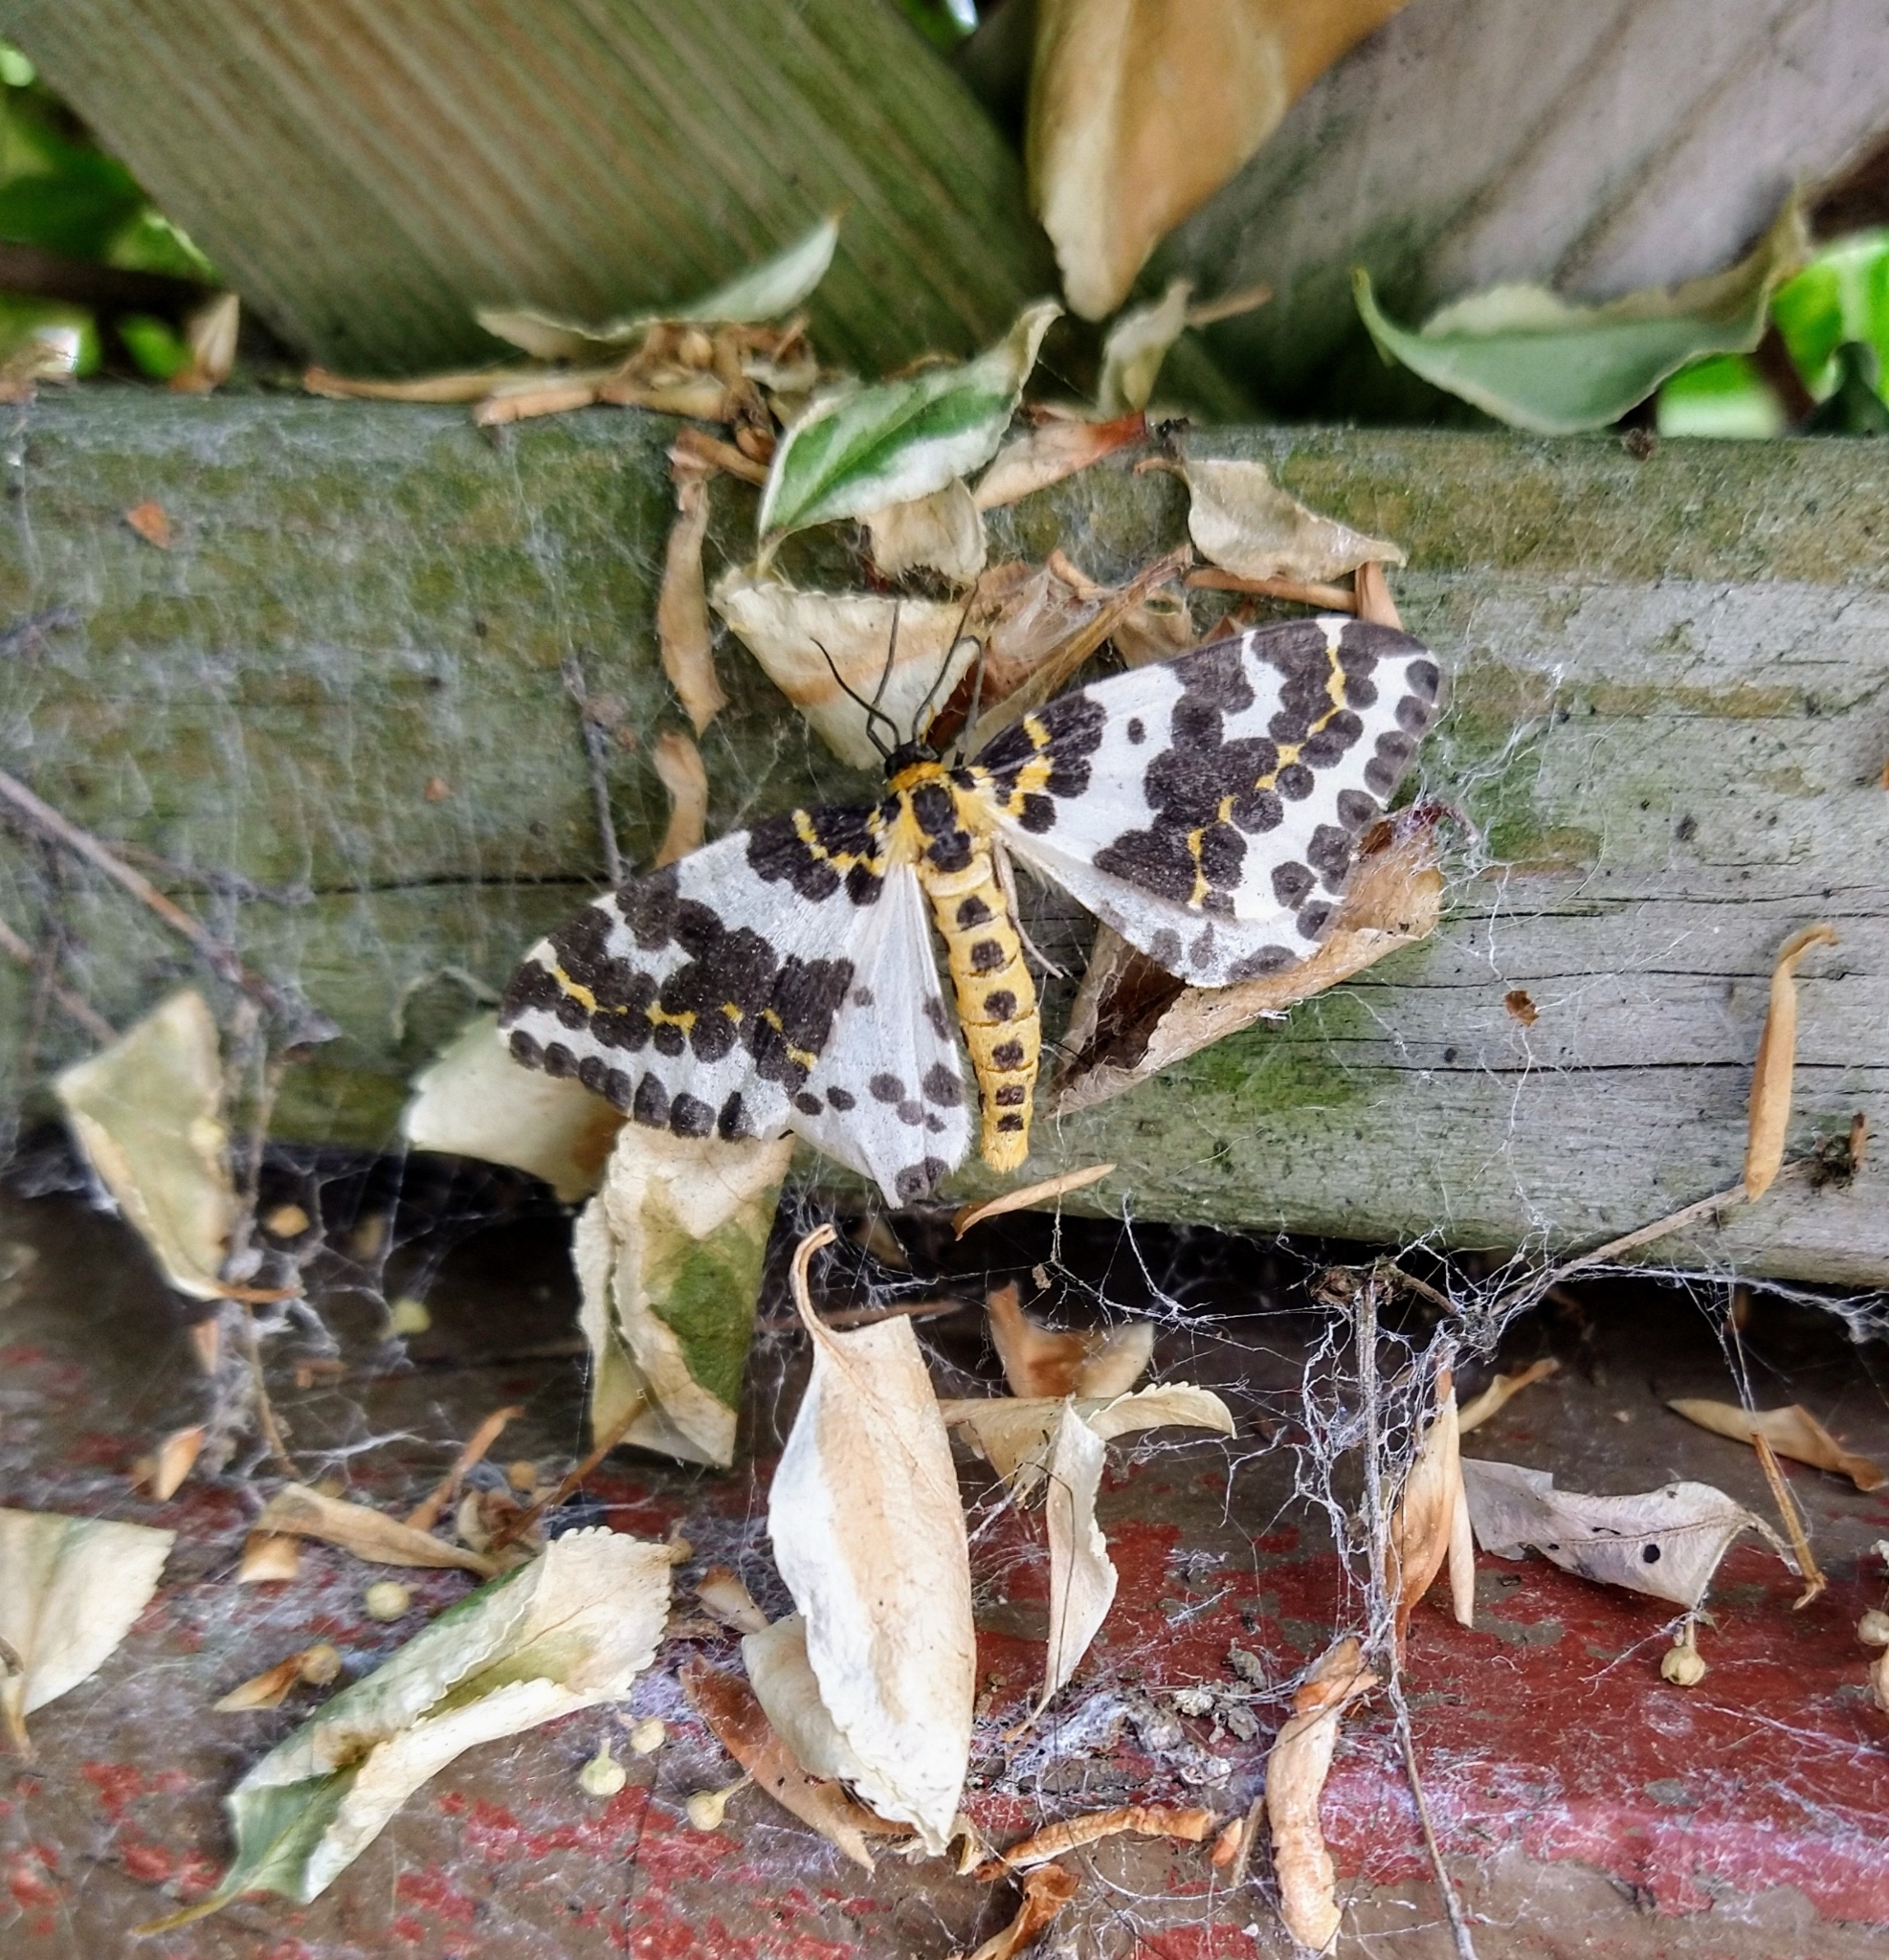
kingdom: Animalia
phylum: Arthropoda
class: Insecta
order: Lepidoptera
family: Geometridae
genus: Abraxas
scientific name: Abraxas grossulariata
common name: Magpie
